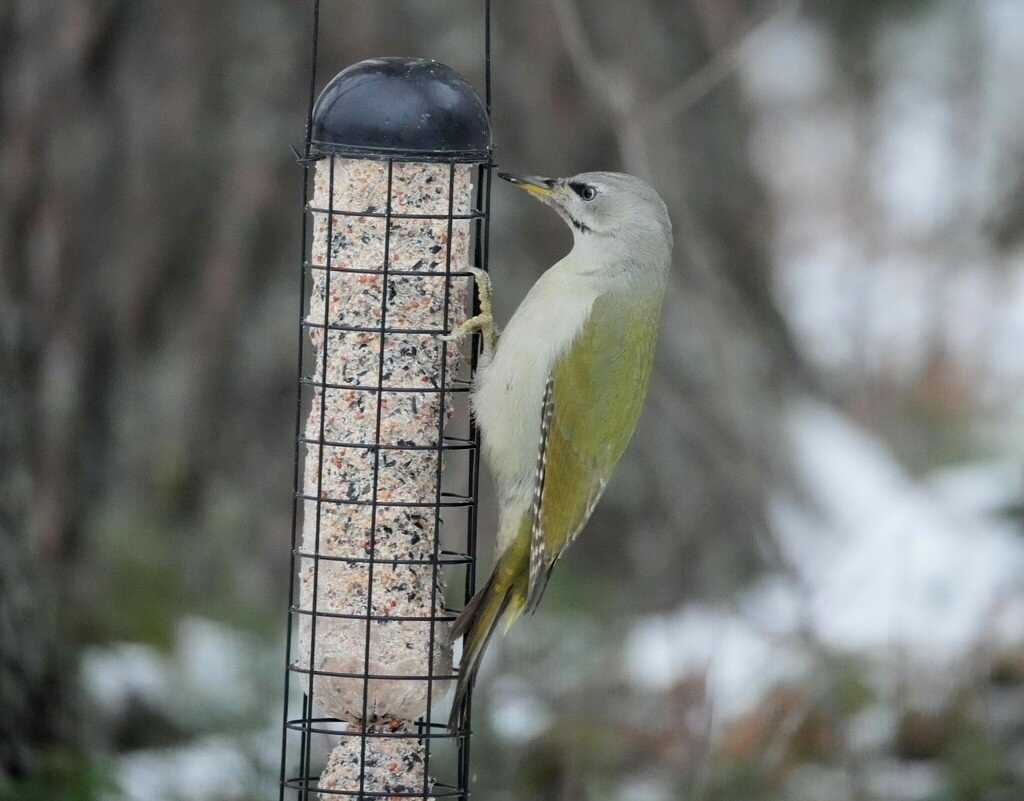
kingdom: Animalia
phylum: Chordata
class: Aves
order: Piciformes
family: Picidae
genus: Picus
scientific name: Picus canus
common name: Grey-headed woodpecker
